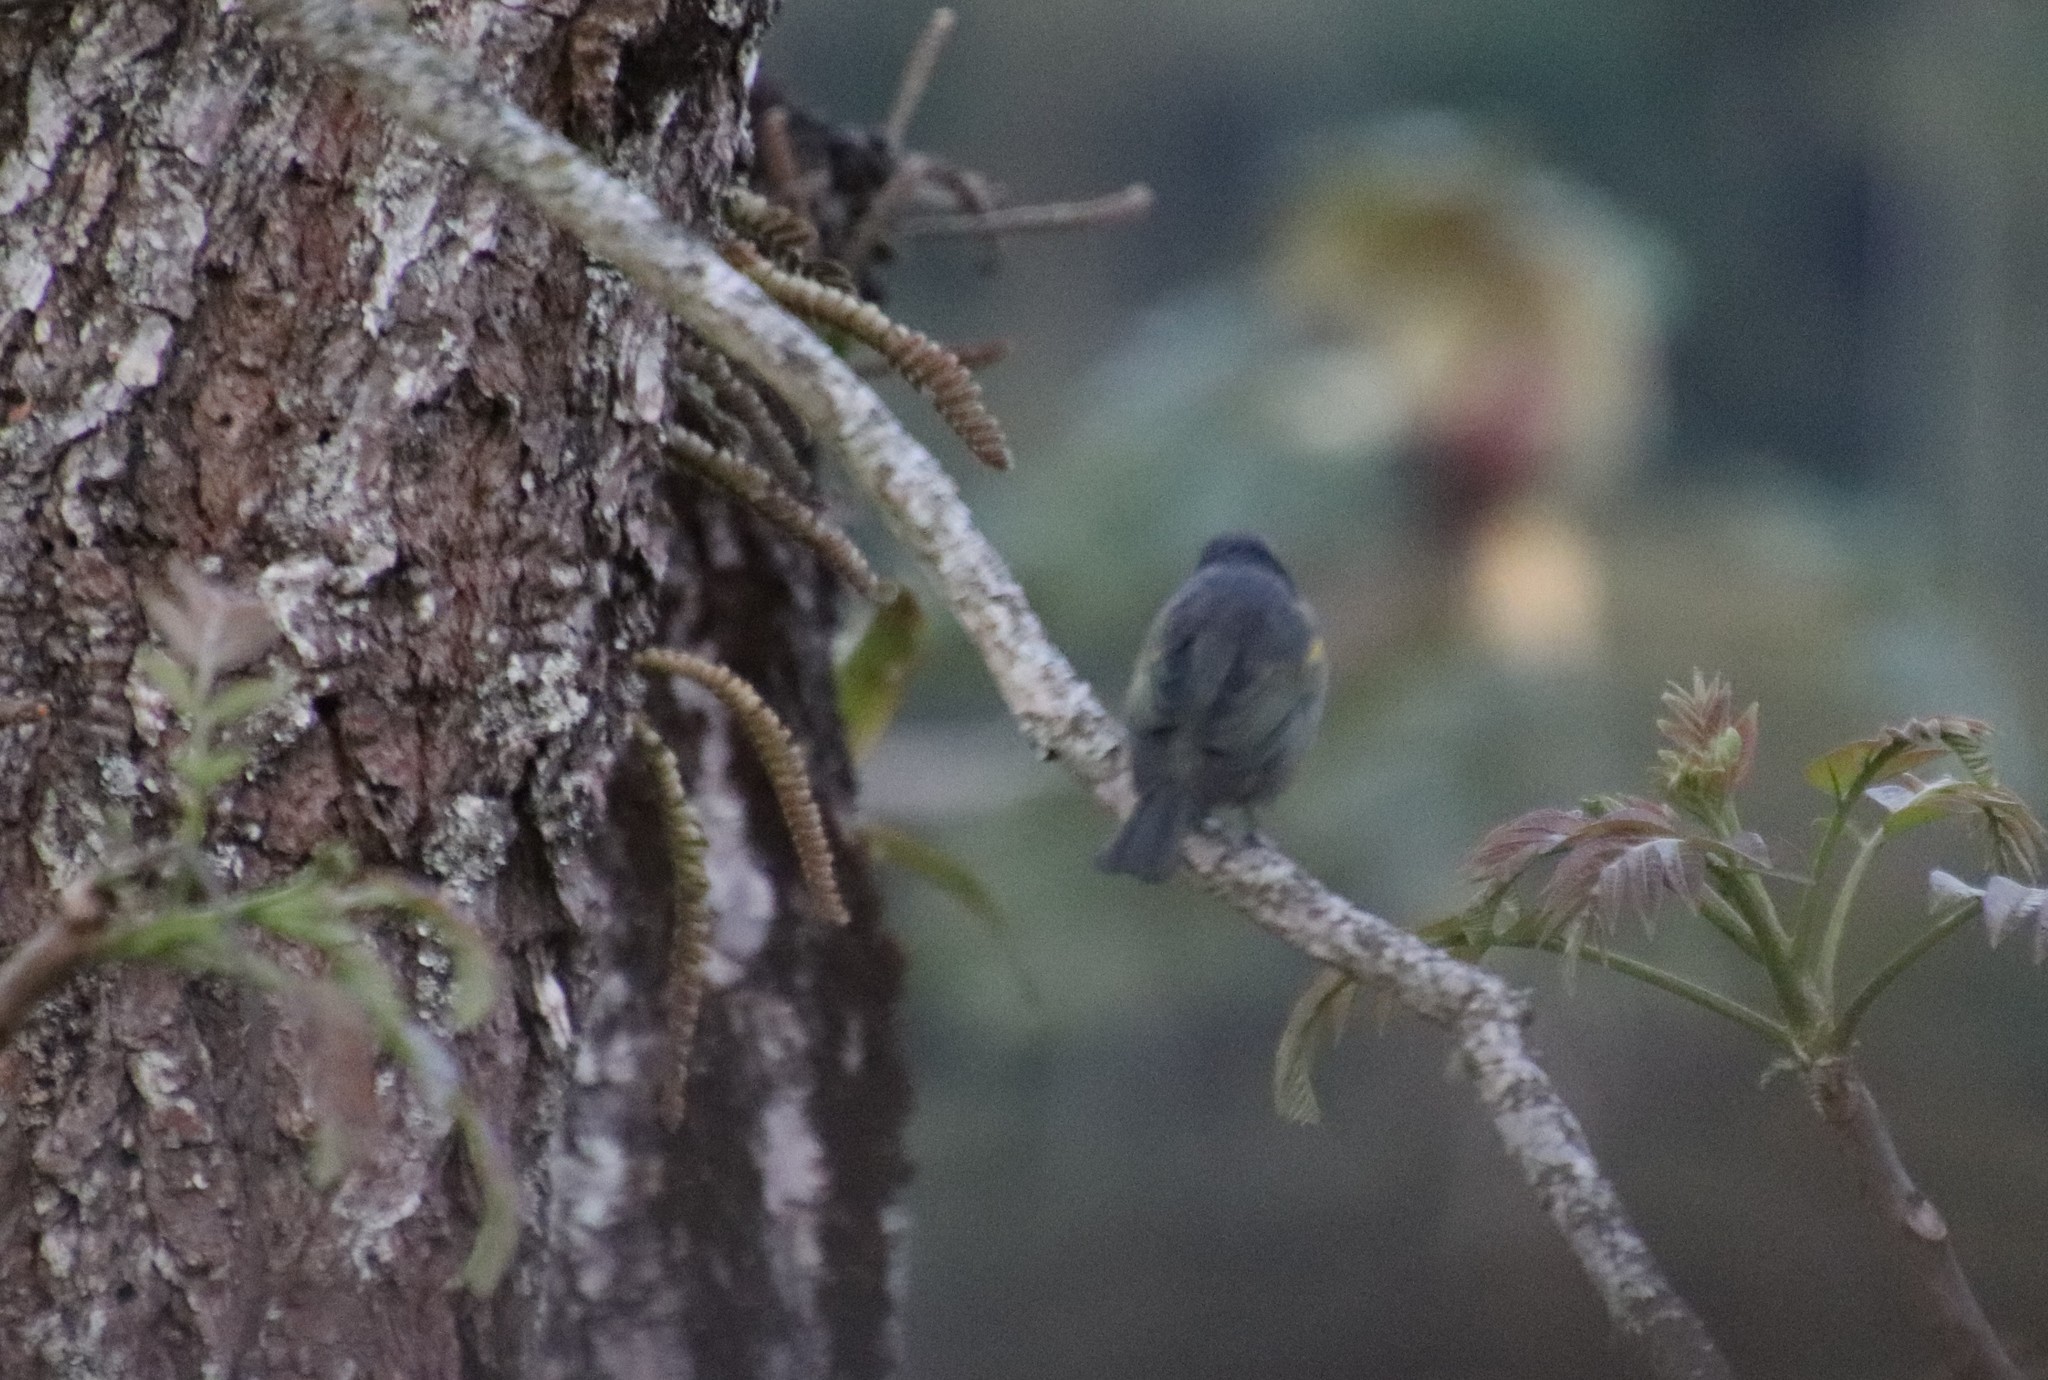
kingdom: Animalia
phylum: Chordata
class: Aves
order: Passeriformes
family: Thraupidae
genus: Thraupis
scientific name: Thraupis ornata
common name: Golden-chevroned tanager
